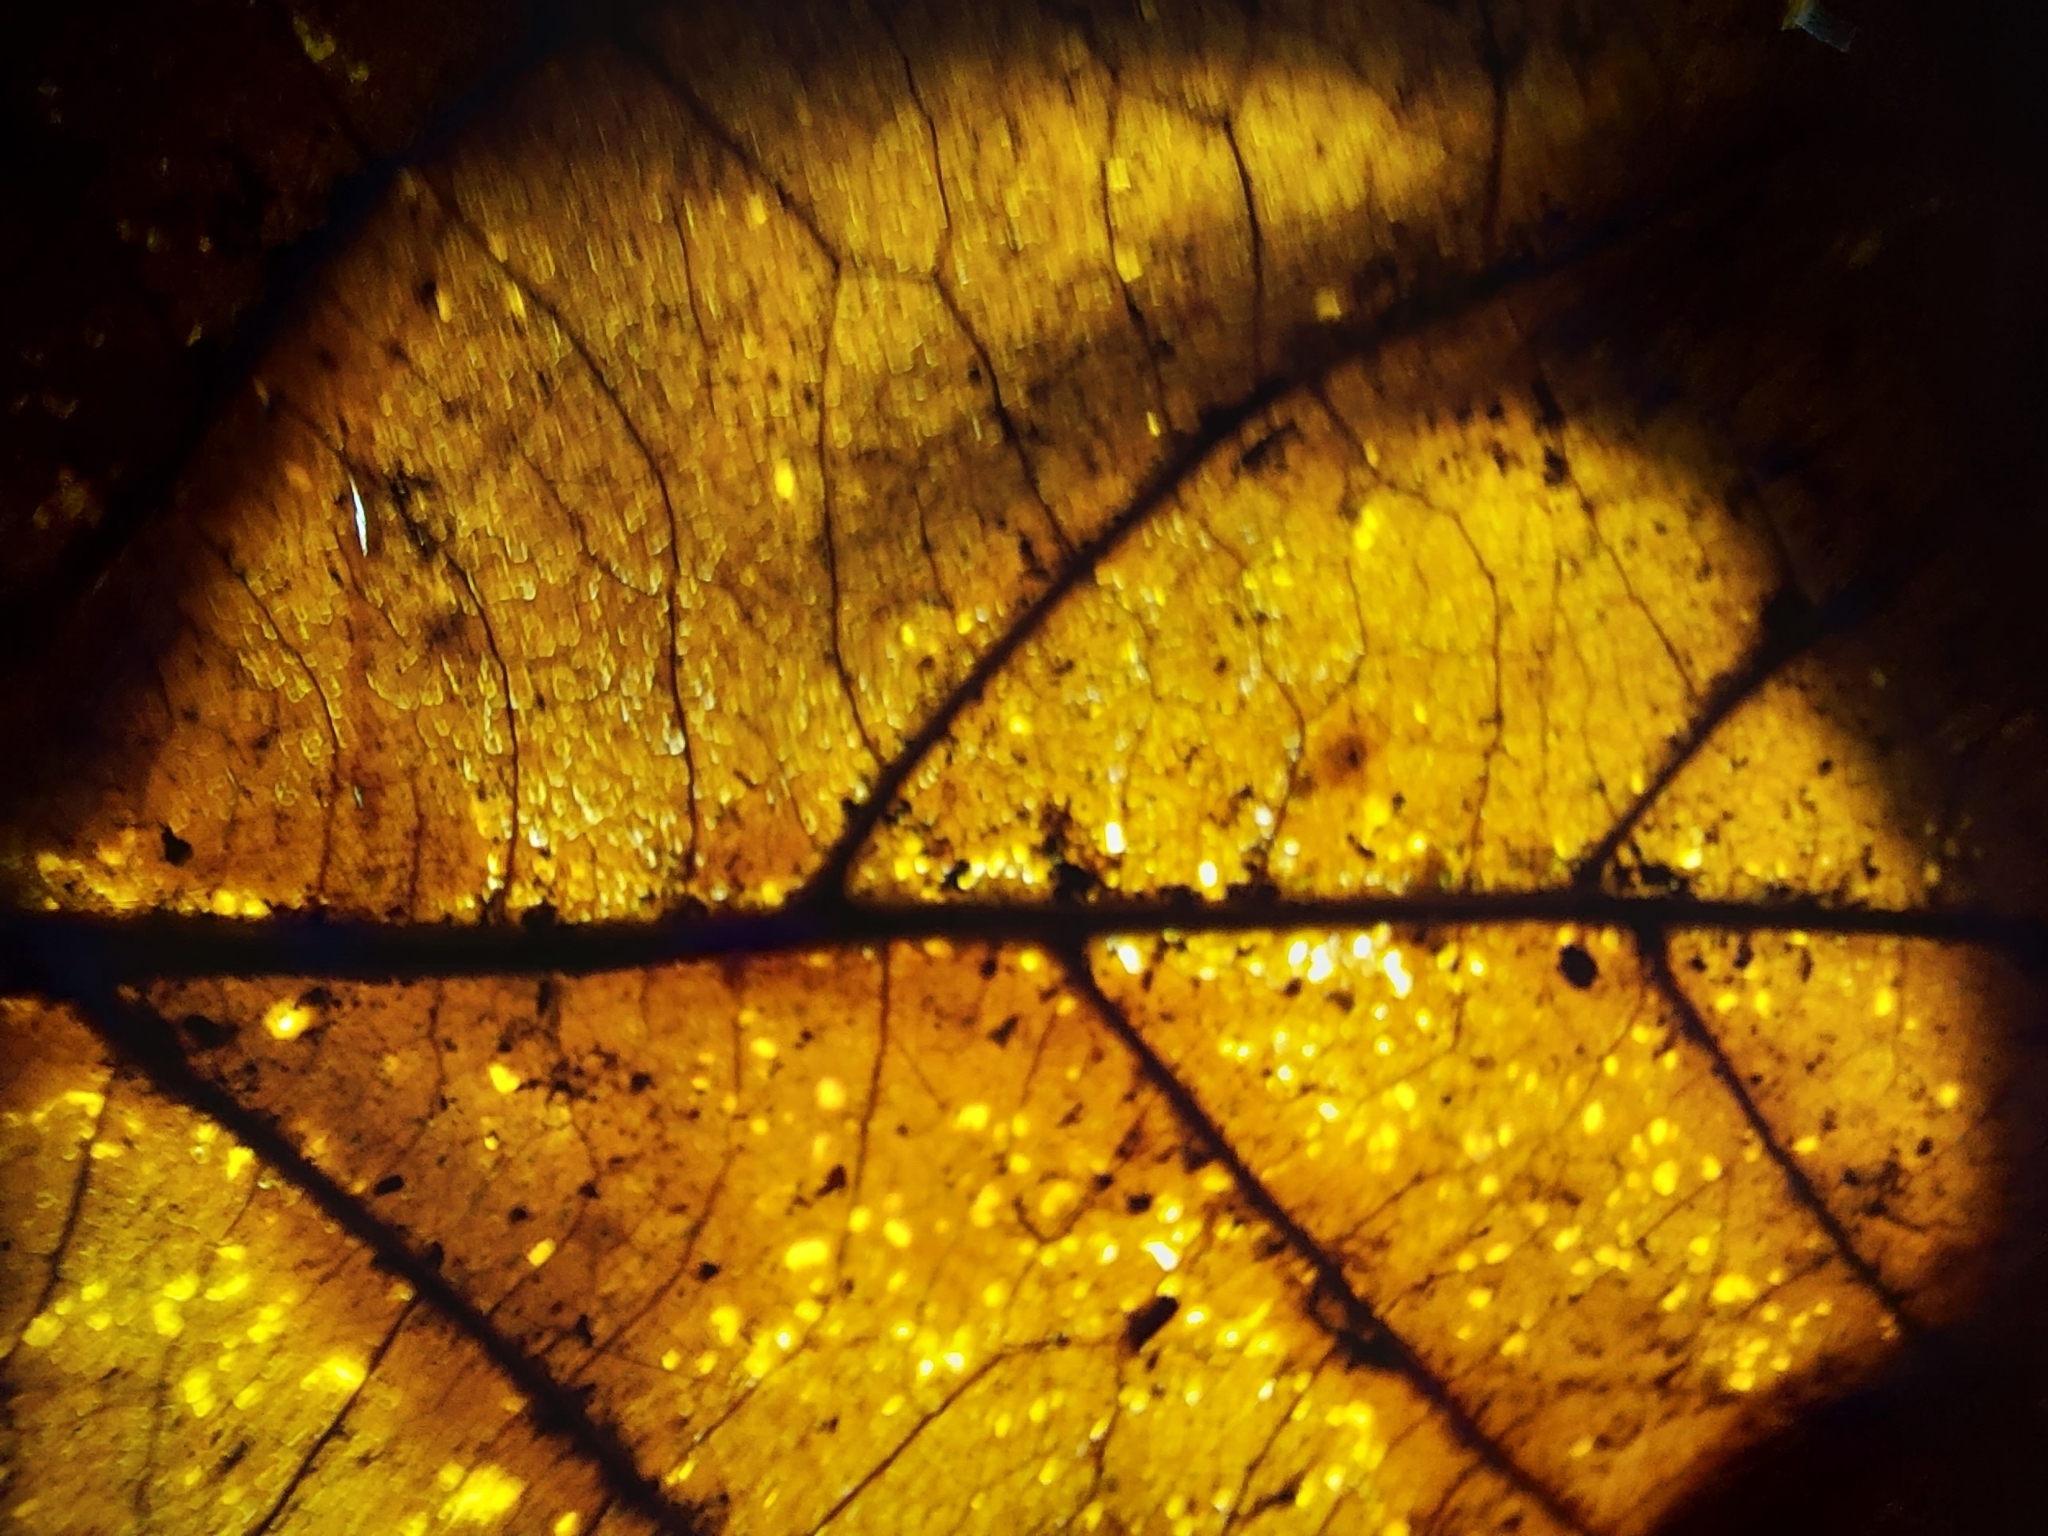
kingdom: Plantae
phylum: Tracheophyta
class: Magnoliopsida
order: Proteales
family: Platanaceae
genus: Platanus
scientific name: Platanus occidentalis
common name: American sycamore
